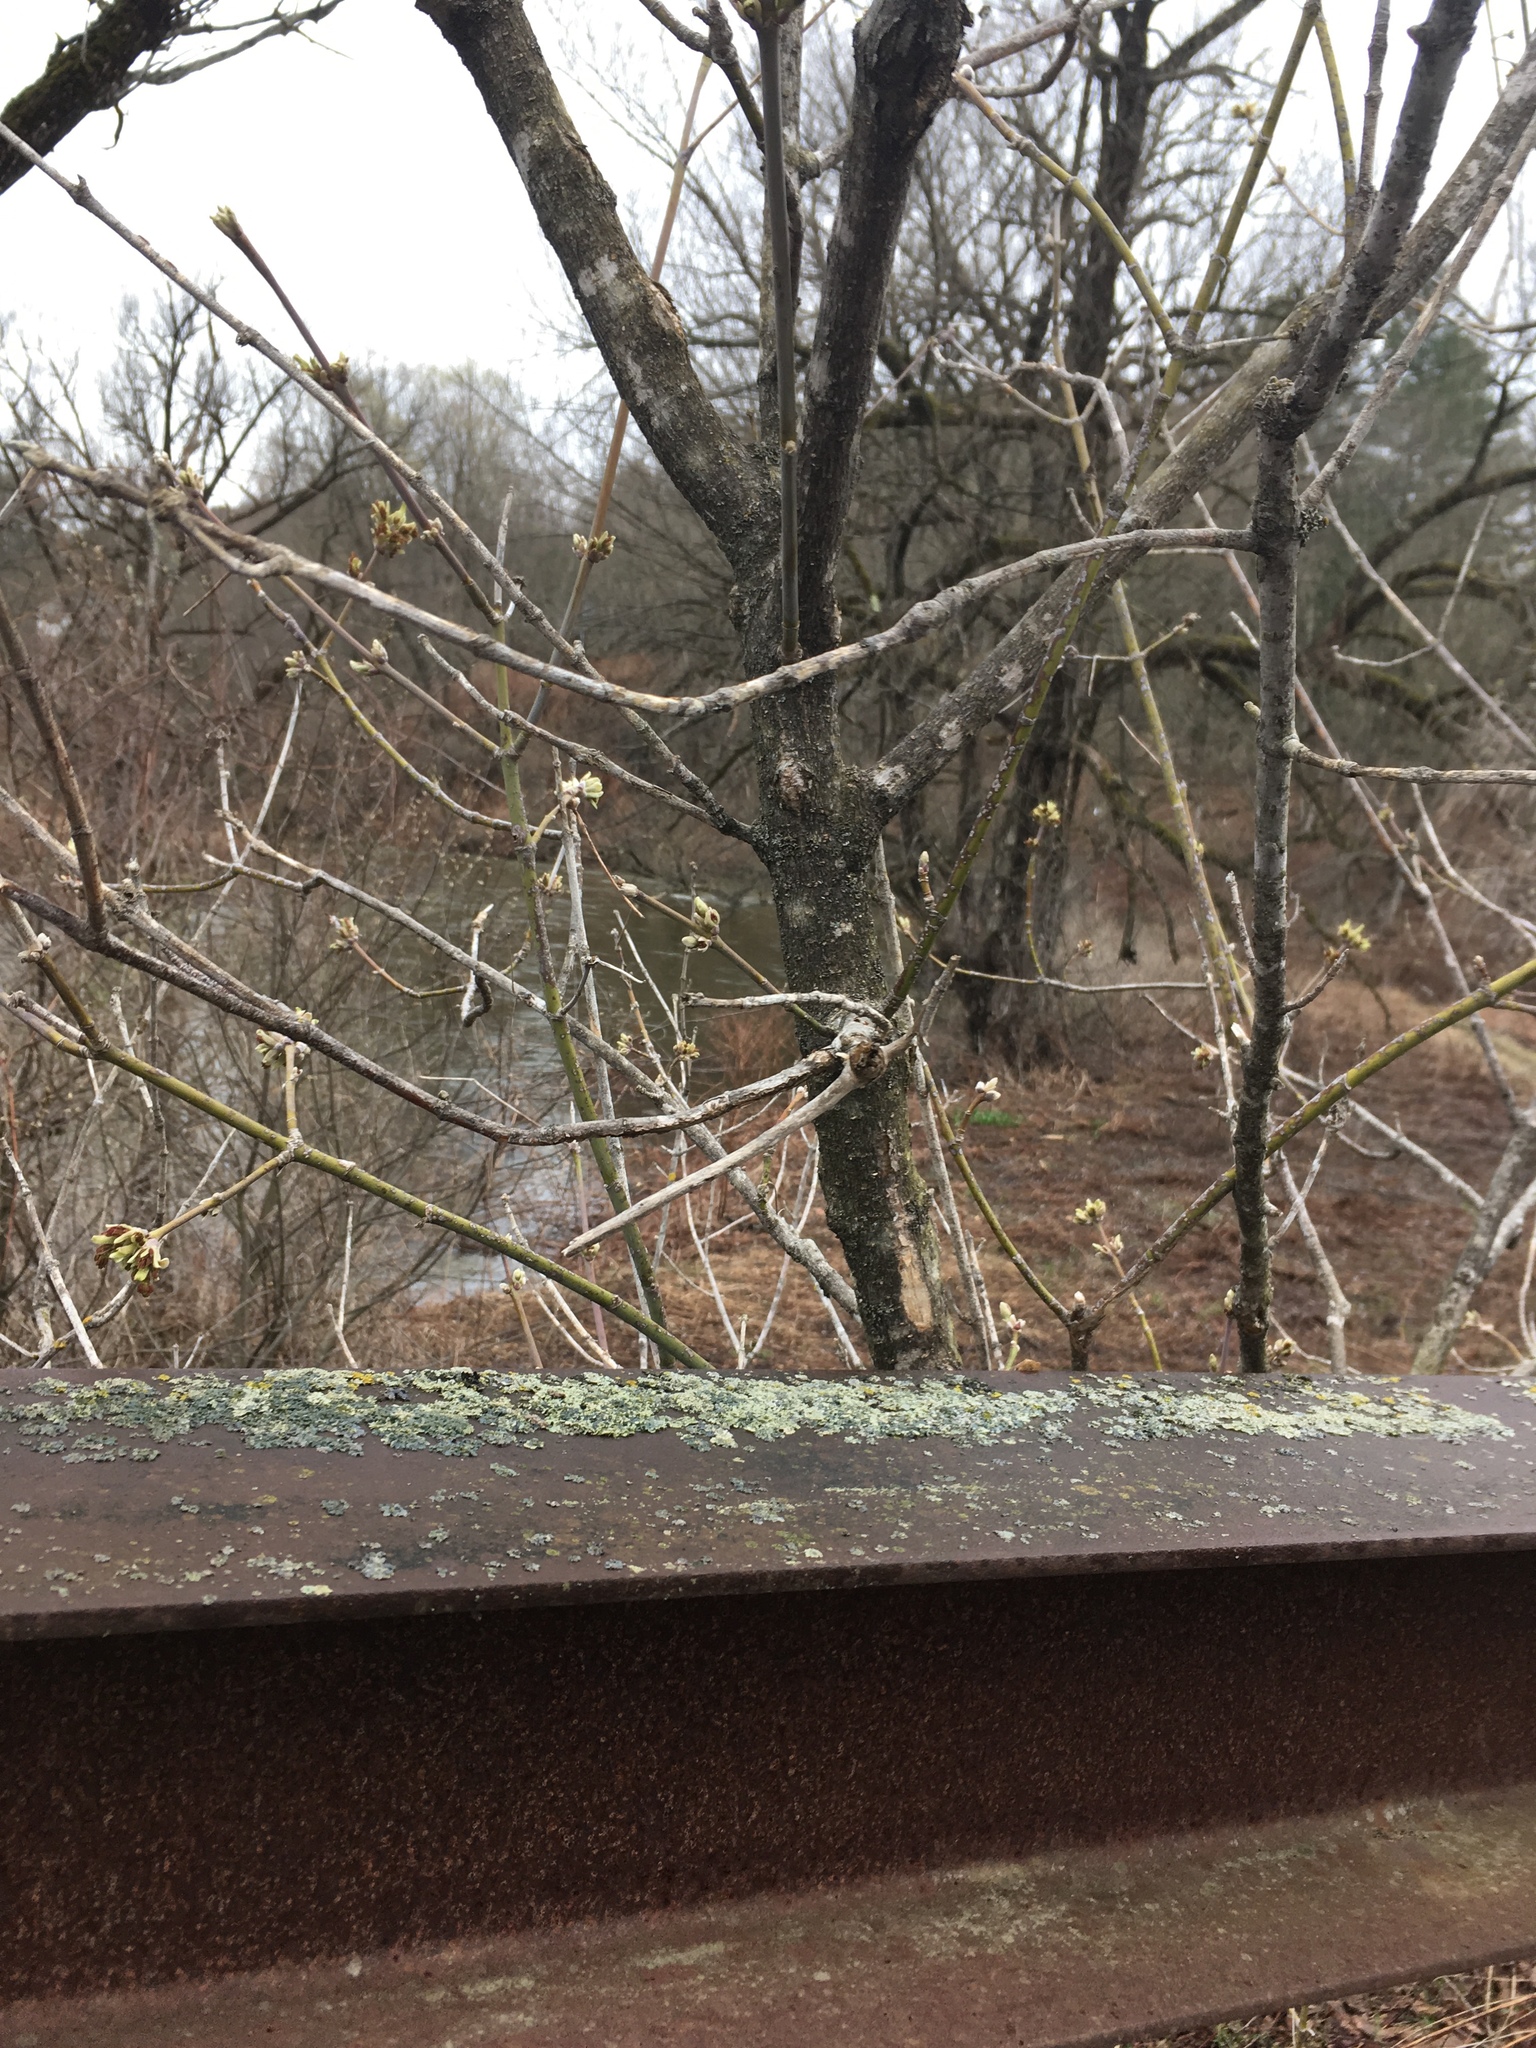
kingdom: Plantae
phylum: Tracheophyta
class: Magnoliopsida
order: Sapindales
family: Sapindaceae
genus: Acer
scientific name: Acer negundo
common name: Ashleaf maple
